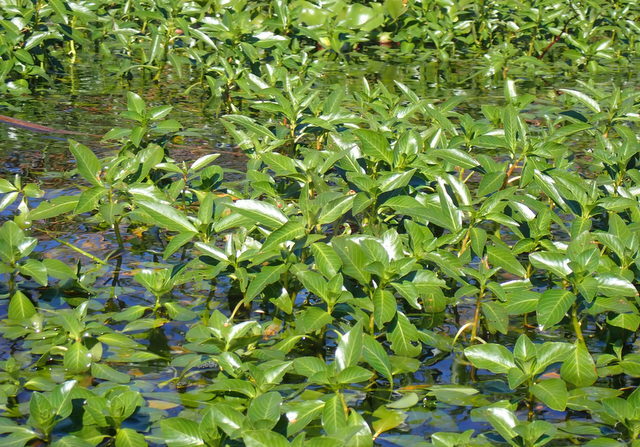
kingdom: Plantae
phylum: Tracheophyta
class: Magnoliopsida
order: Myrtales
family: Onagraceae
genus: Ludwigia
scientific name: Ludwigia peploides
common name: Floating primrose-willow
